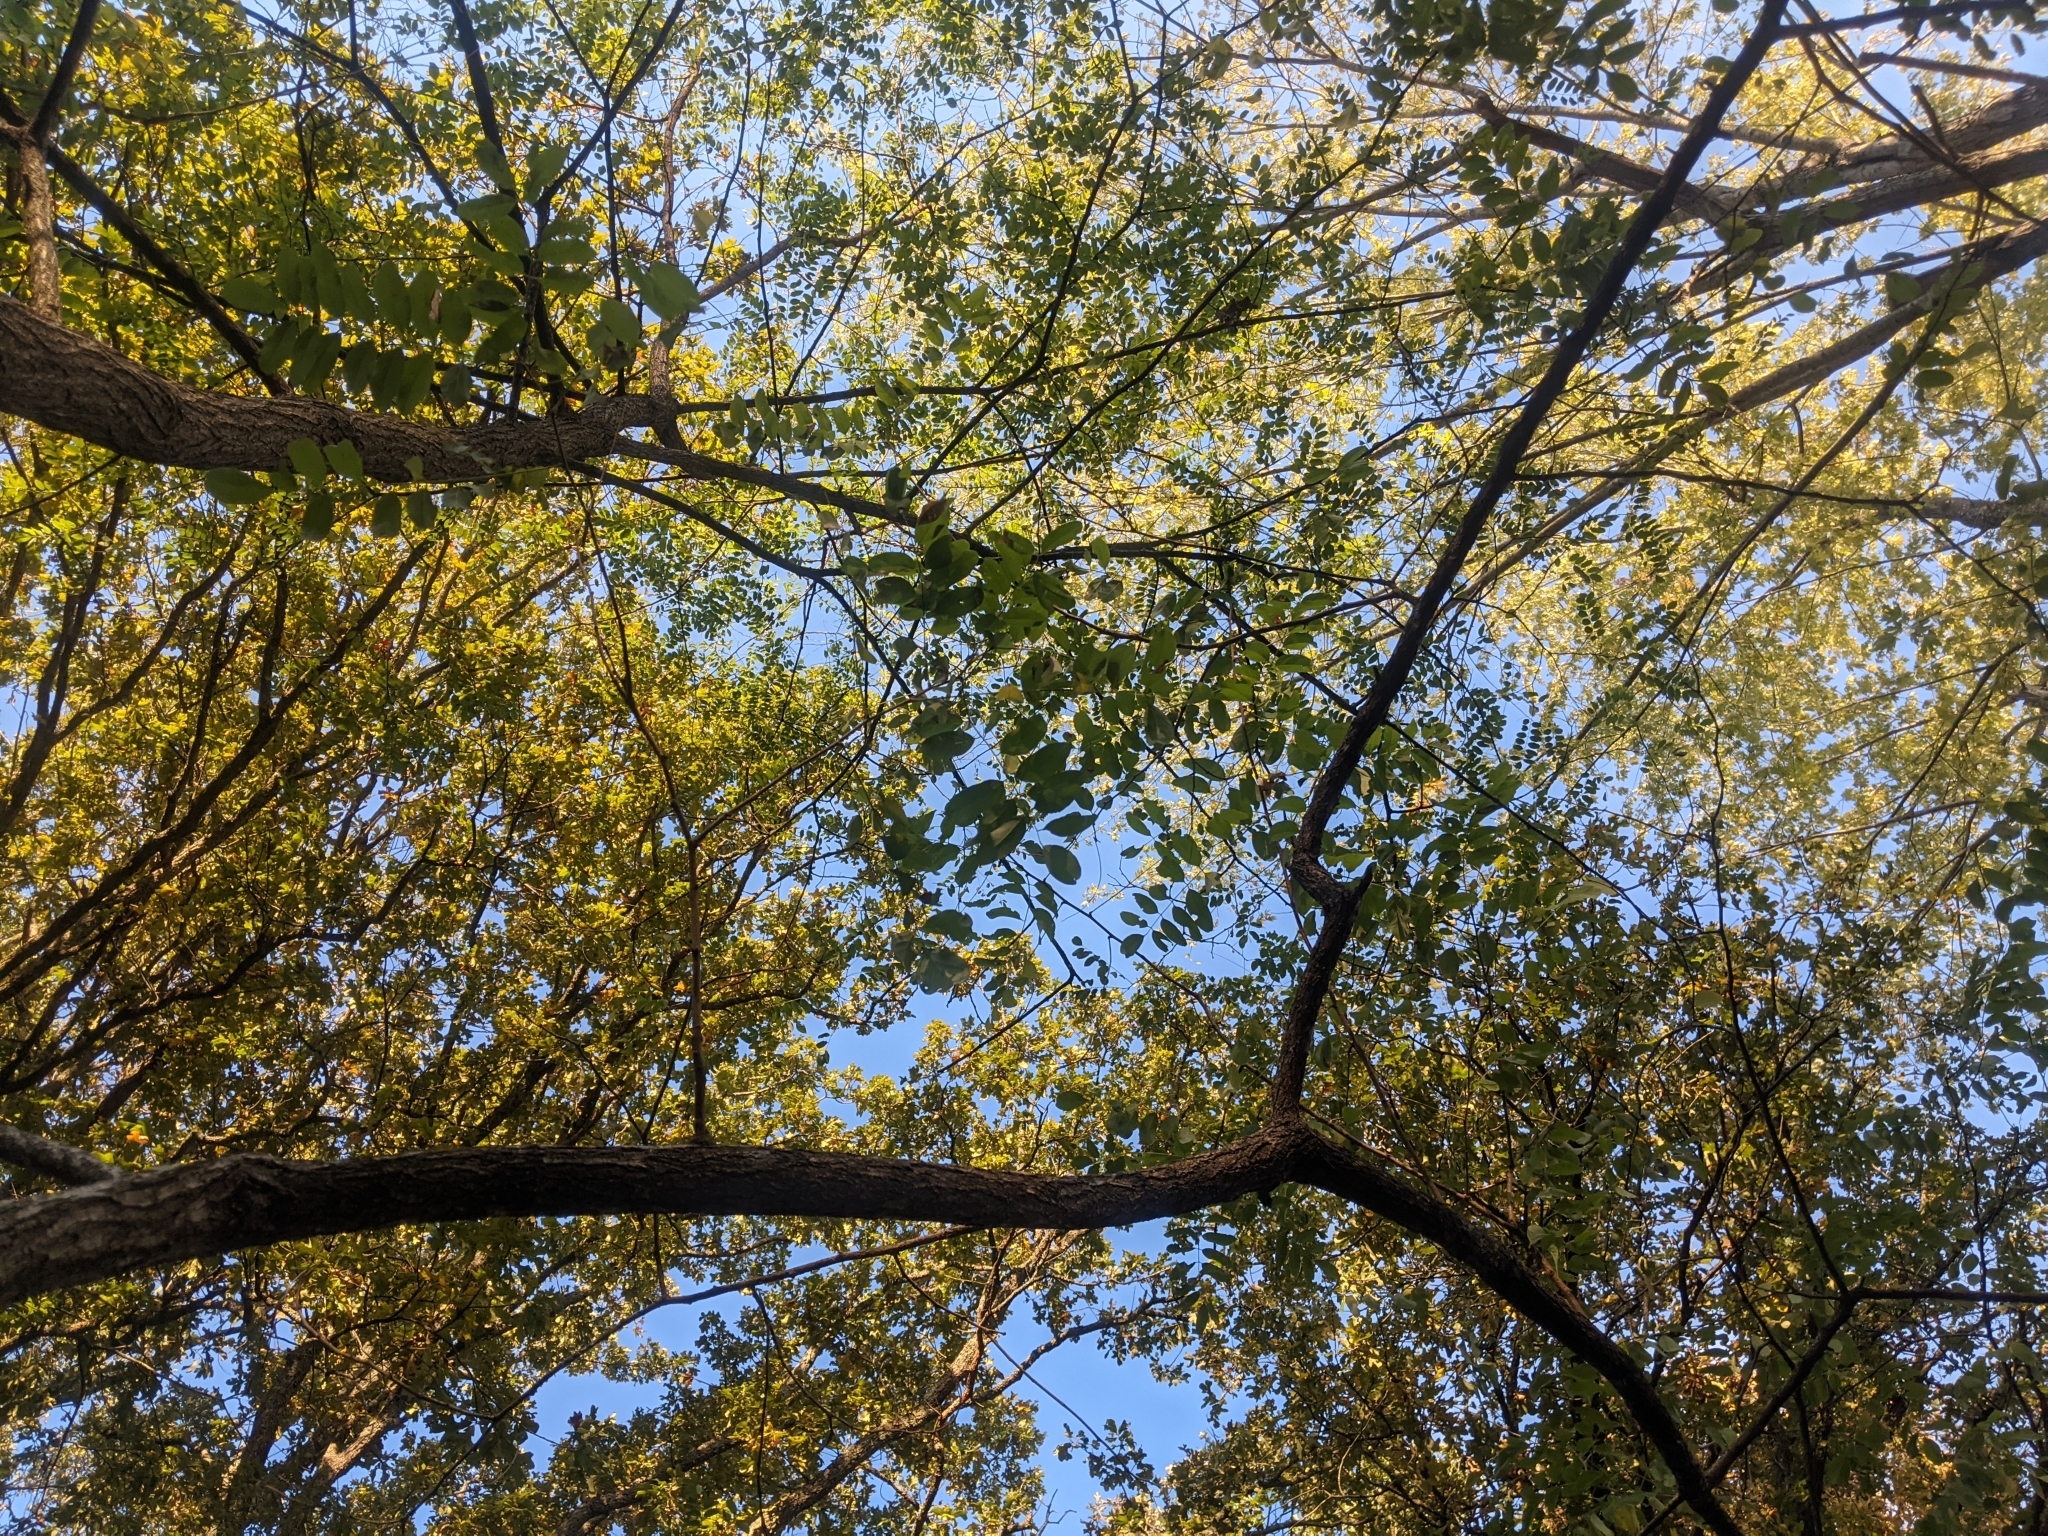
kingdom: Plantae
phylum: Tracheophyta
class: Magnoliopsida
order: Fabales
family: Fabaceae
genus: Robinia
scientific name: Robinia pseudoacacia
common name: Black locust
